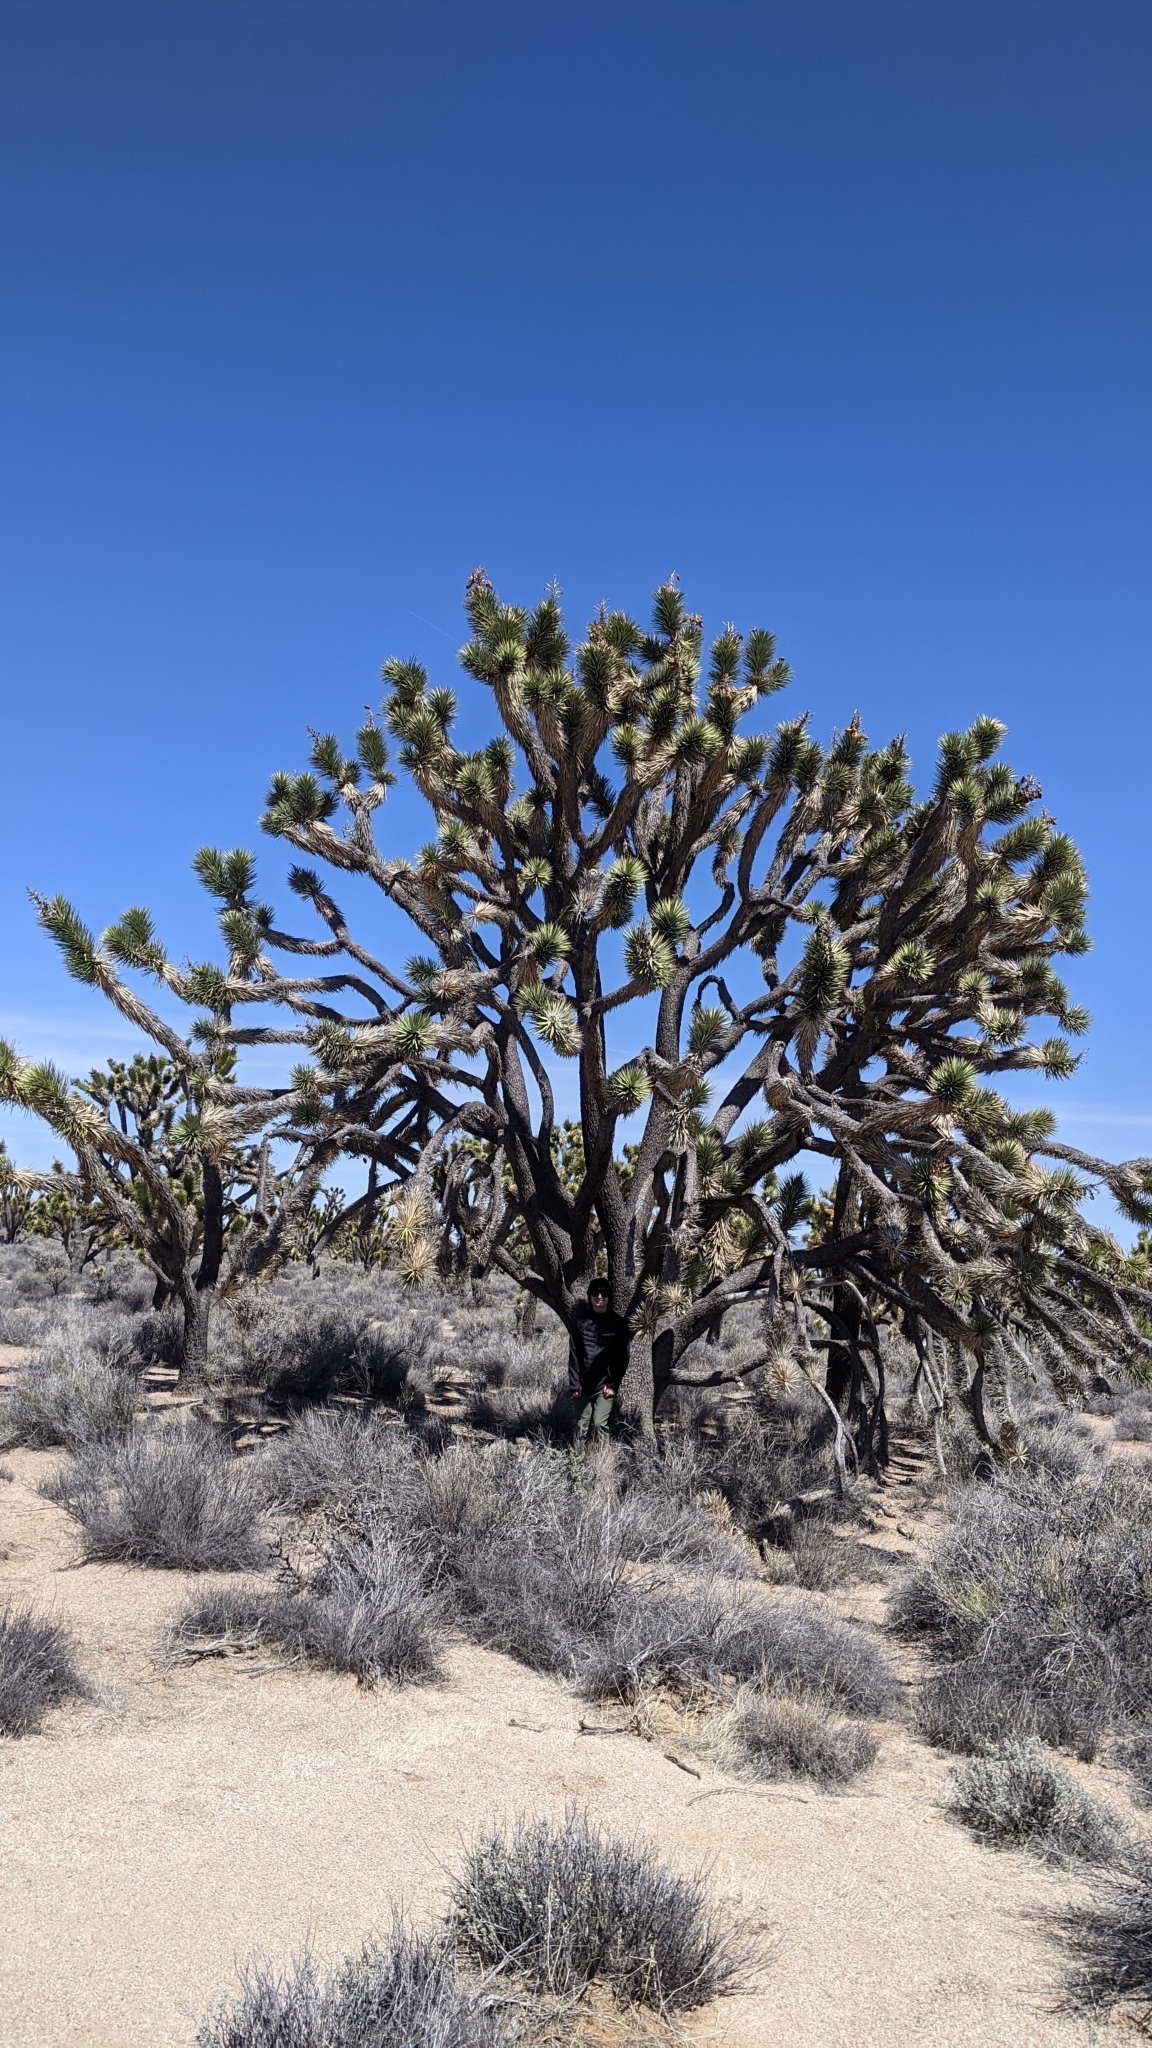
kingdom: Plantae
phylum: Tracheophyta
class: Liliopsida
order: Asparagales
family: Asparagaceae
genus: Yucca
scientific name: Yucca brevifolia
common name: Joshua tree
